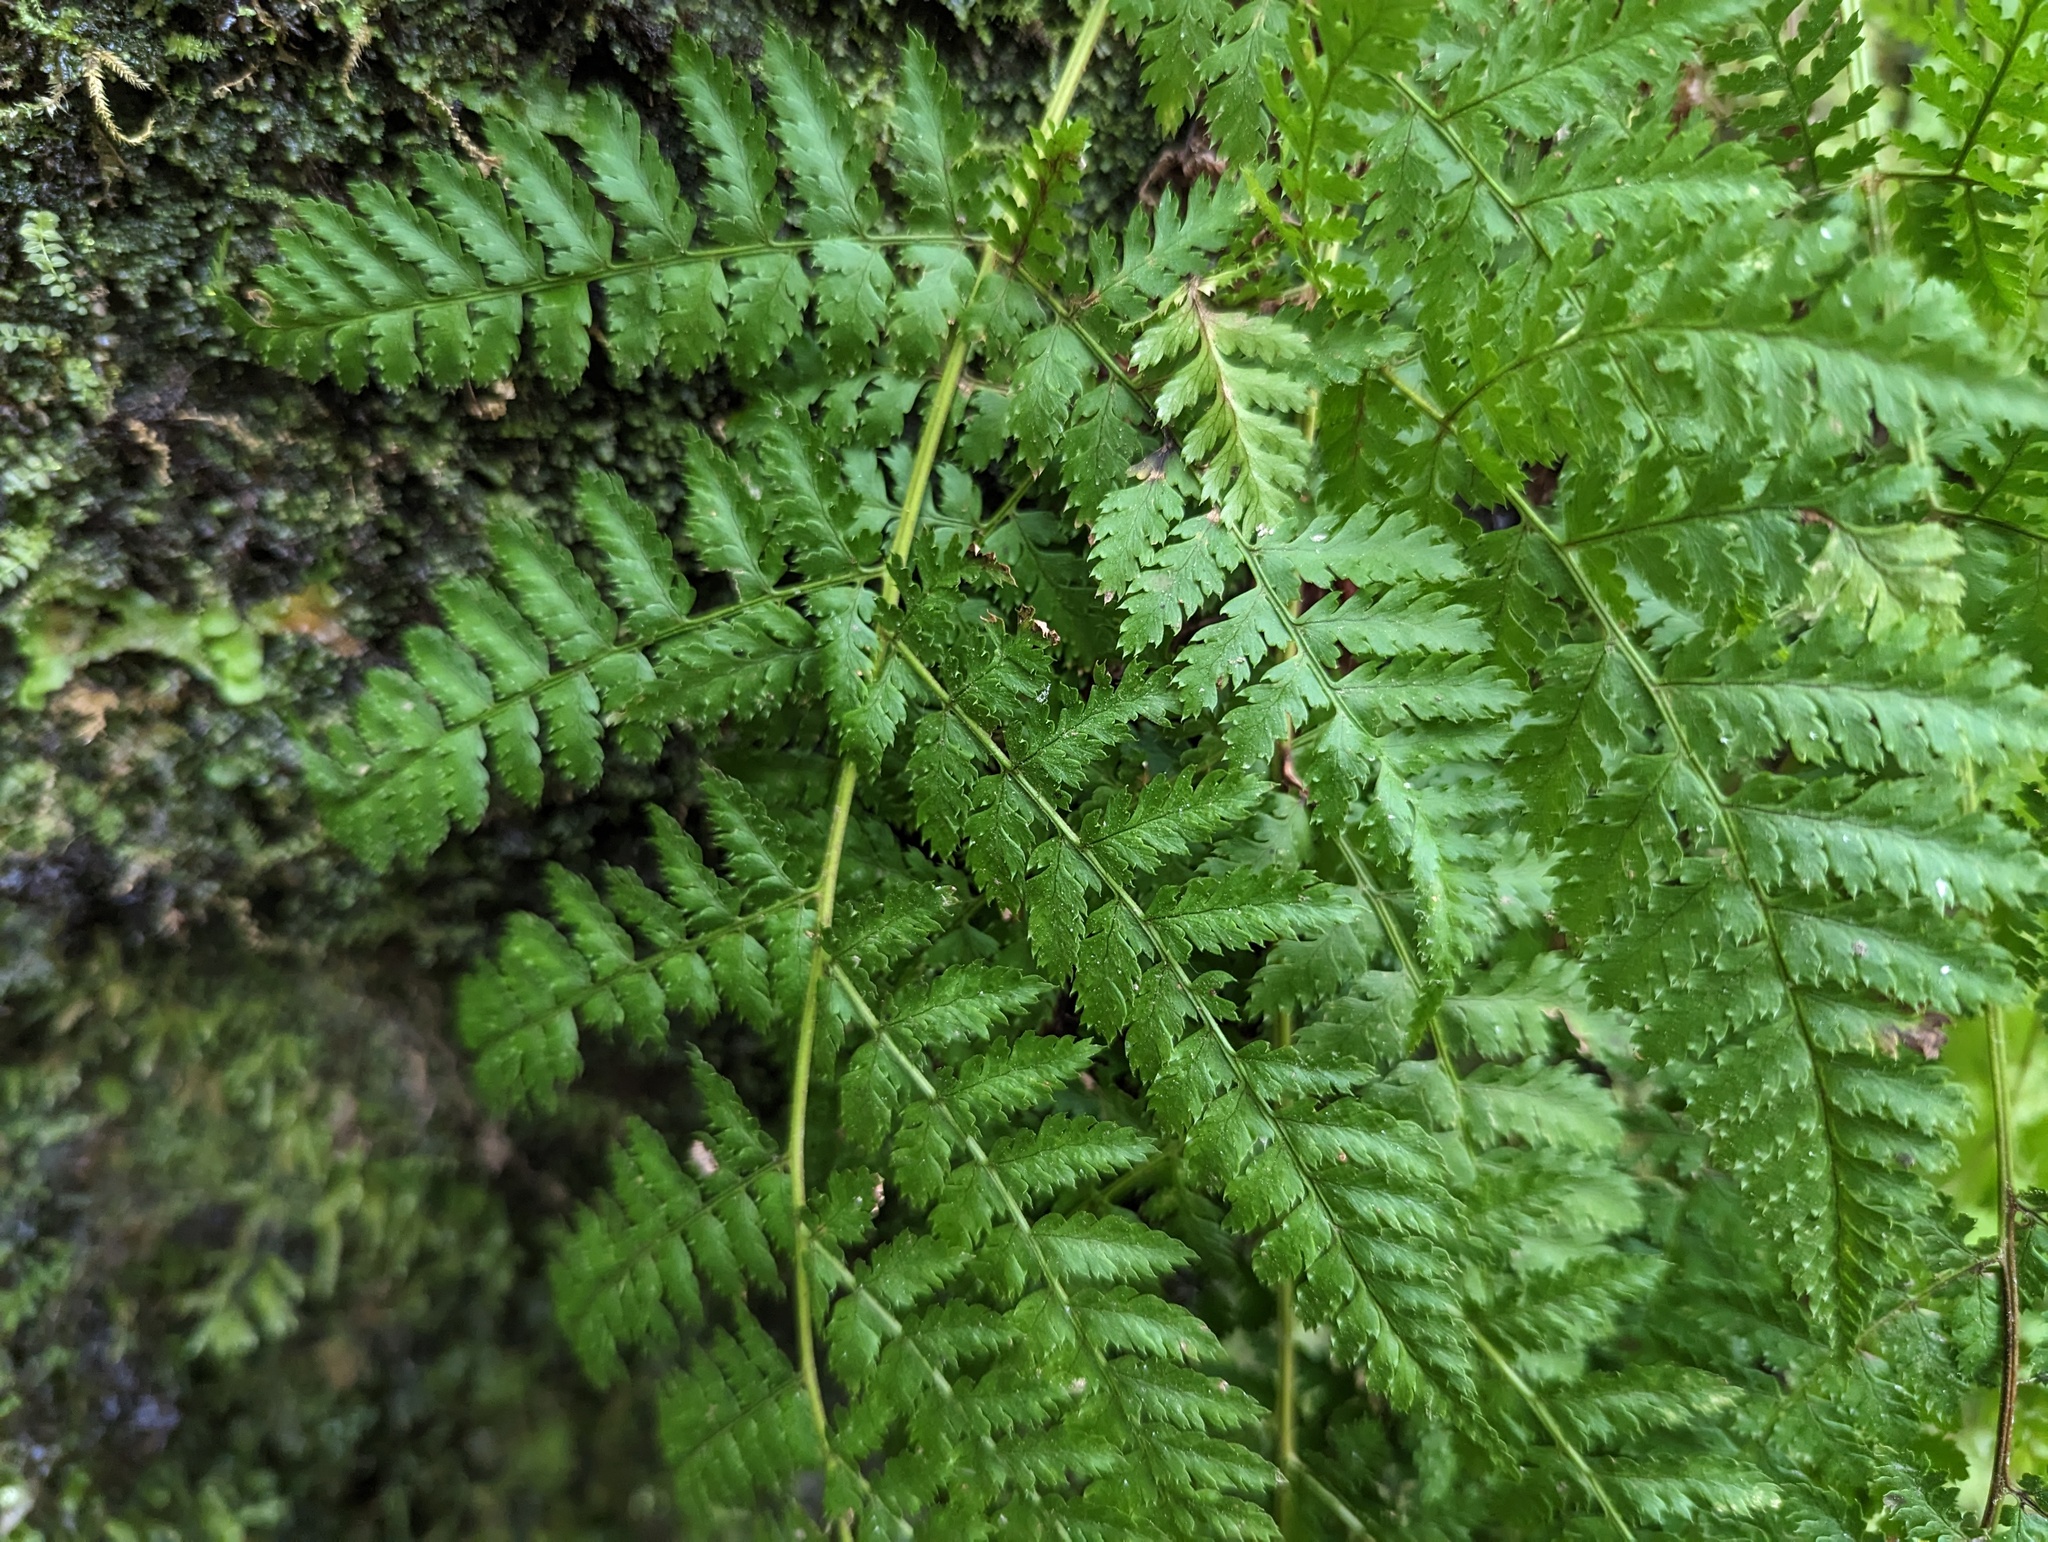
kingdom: Plantae
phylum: Tracheophyta
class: Polypodiopsida
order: Polypodiales
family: Dryopteridaceae
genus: Dryopteris
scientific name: Dryopteris intermedia
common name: Evergreen wood fern
